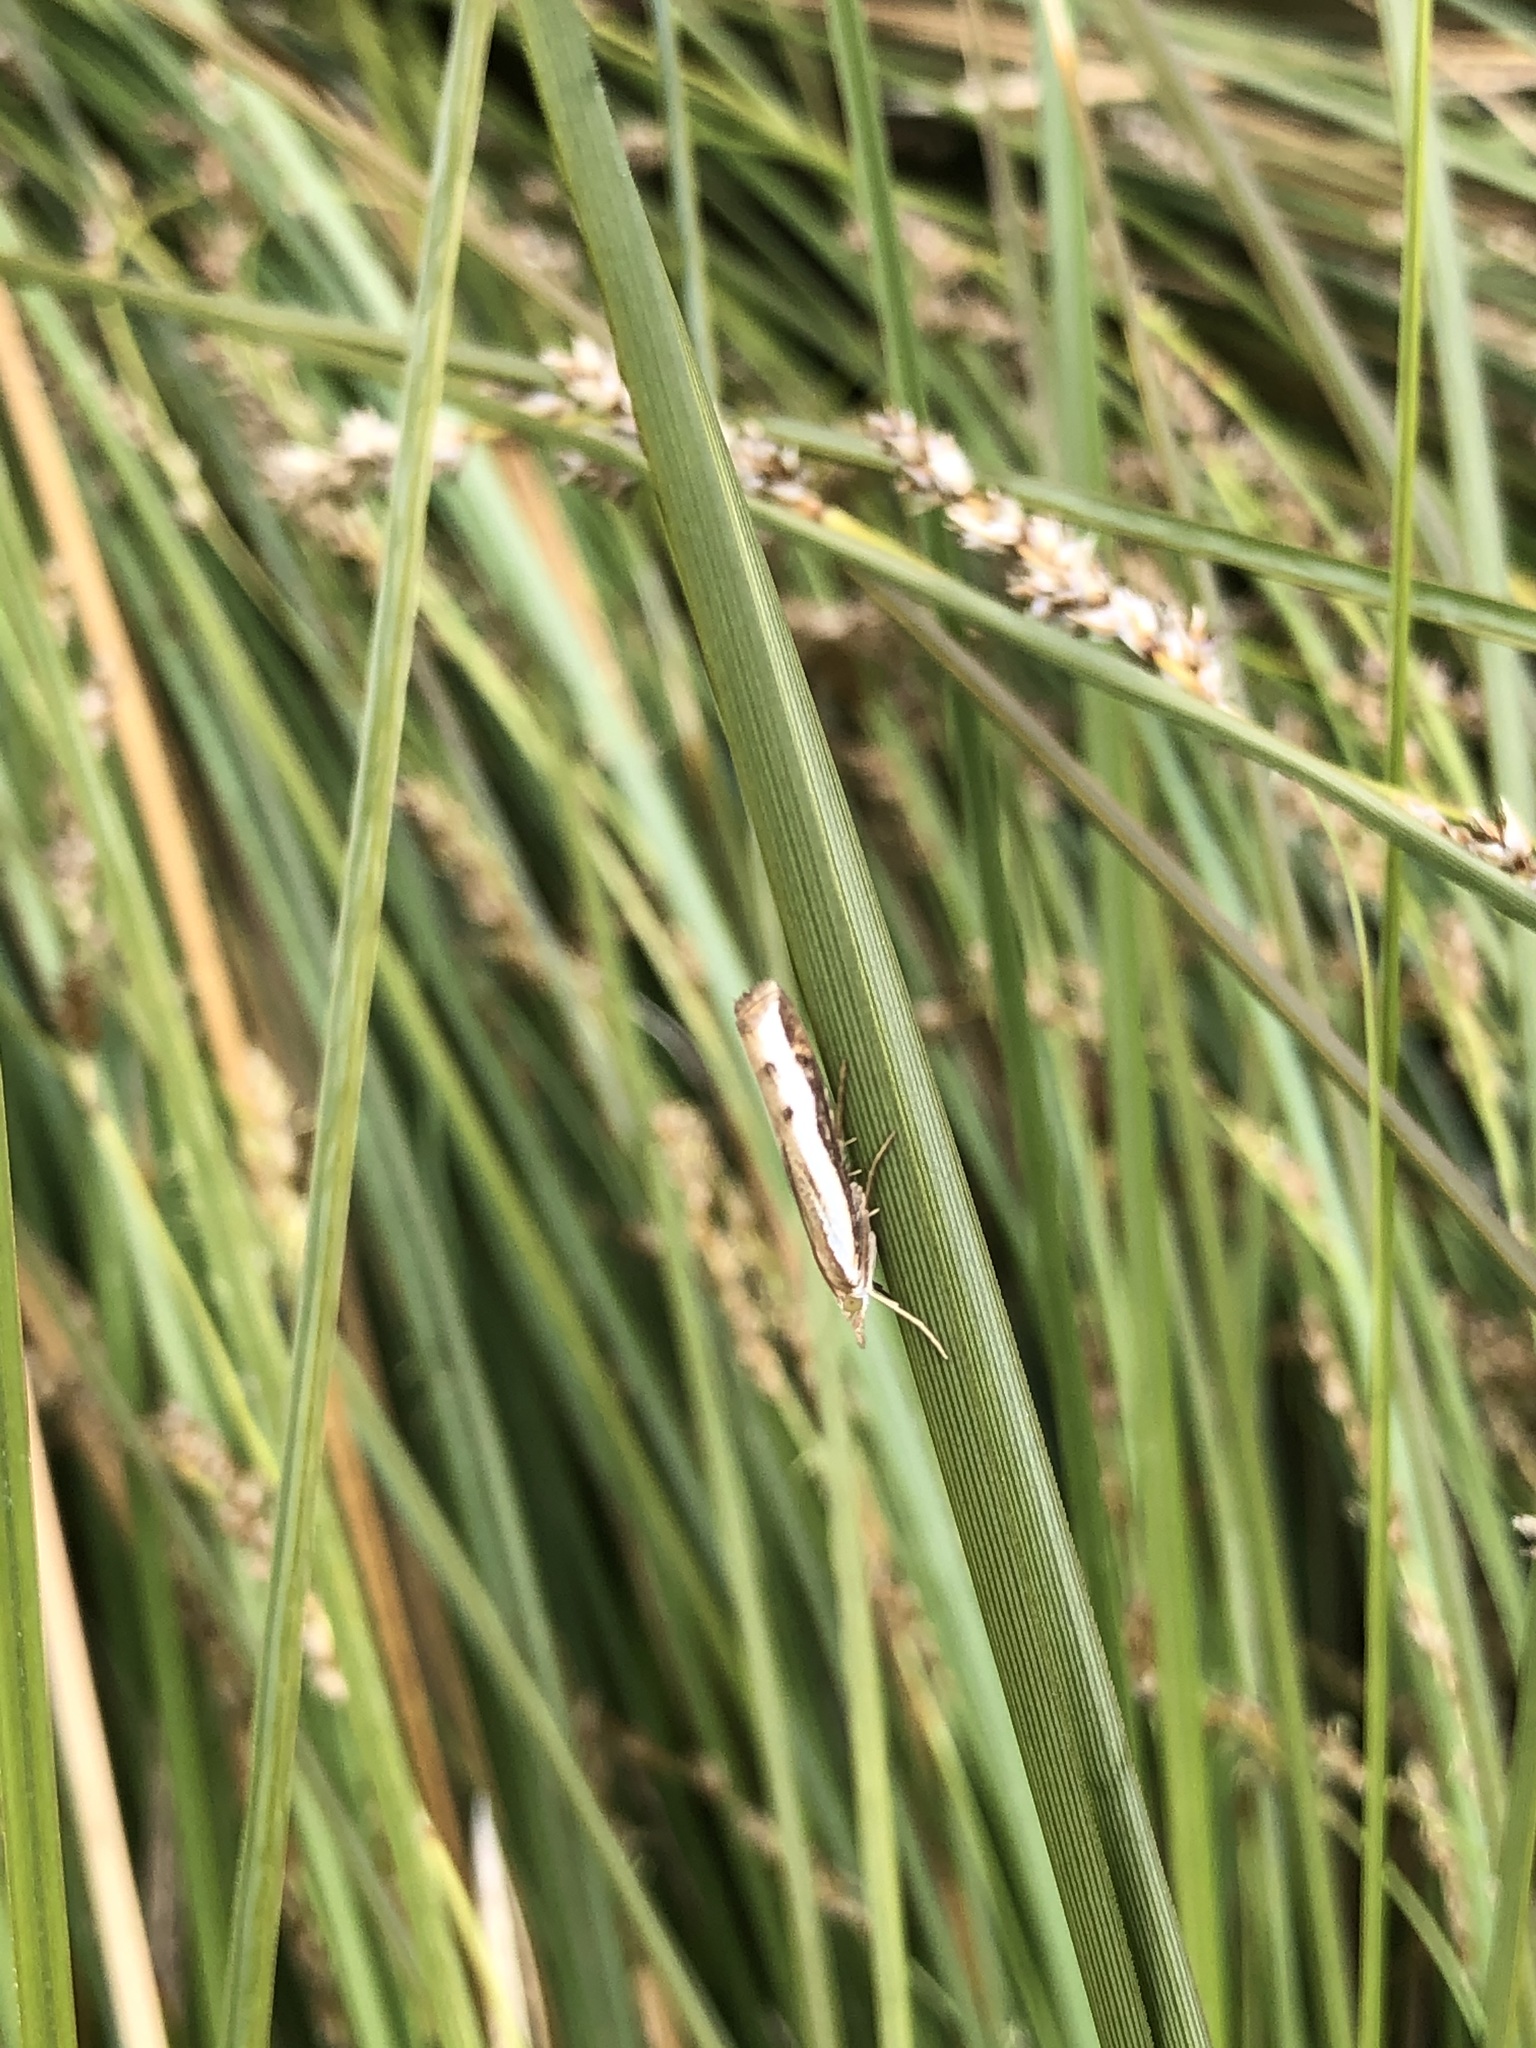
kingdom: Animalia
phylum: Arthropoda
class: Insecta
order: Lepidoptera
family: Crambidae
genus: Orocrambus
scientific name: Orocrambus flexuosellus
